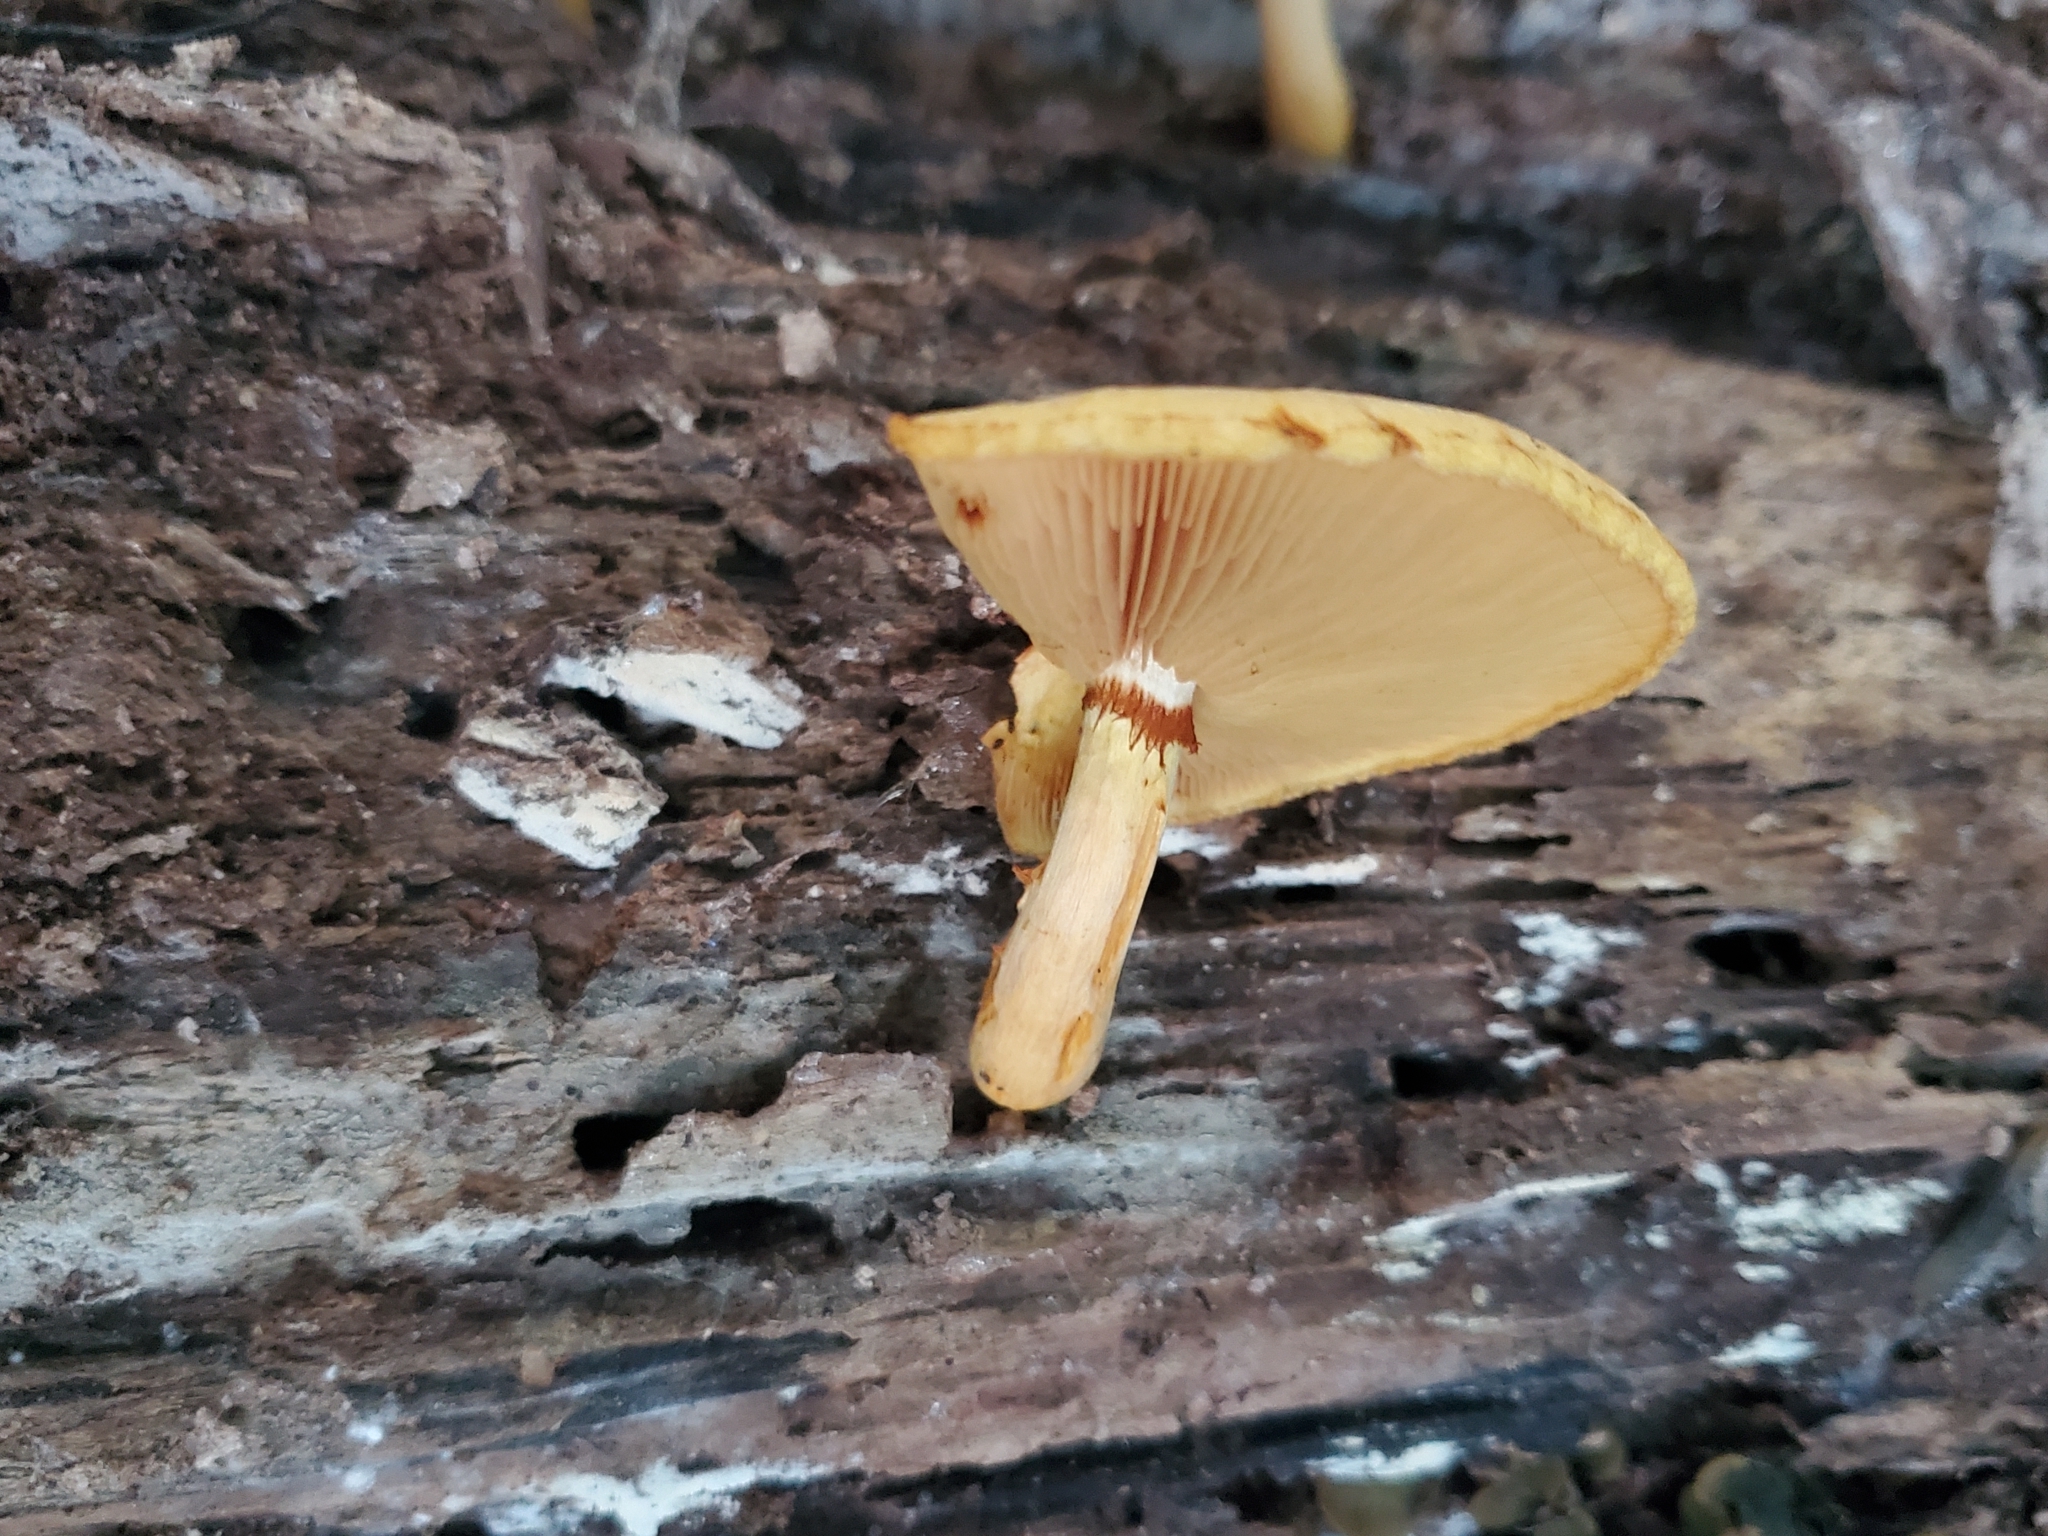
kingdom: Fungi
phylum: Basidiomycota
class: Agaricomycetes
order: Agaricales
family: Hymenogastraceae
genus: Gymnopilus
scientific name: Gymnopilus luteus
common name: Yellow gymnopilus
